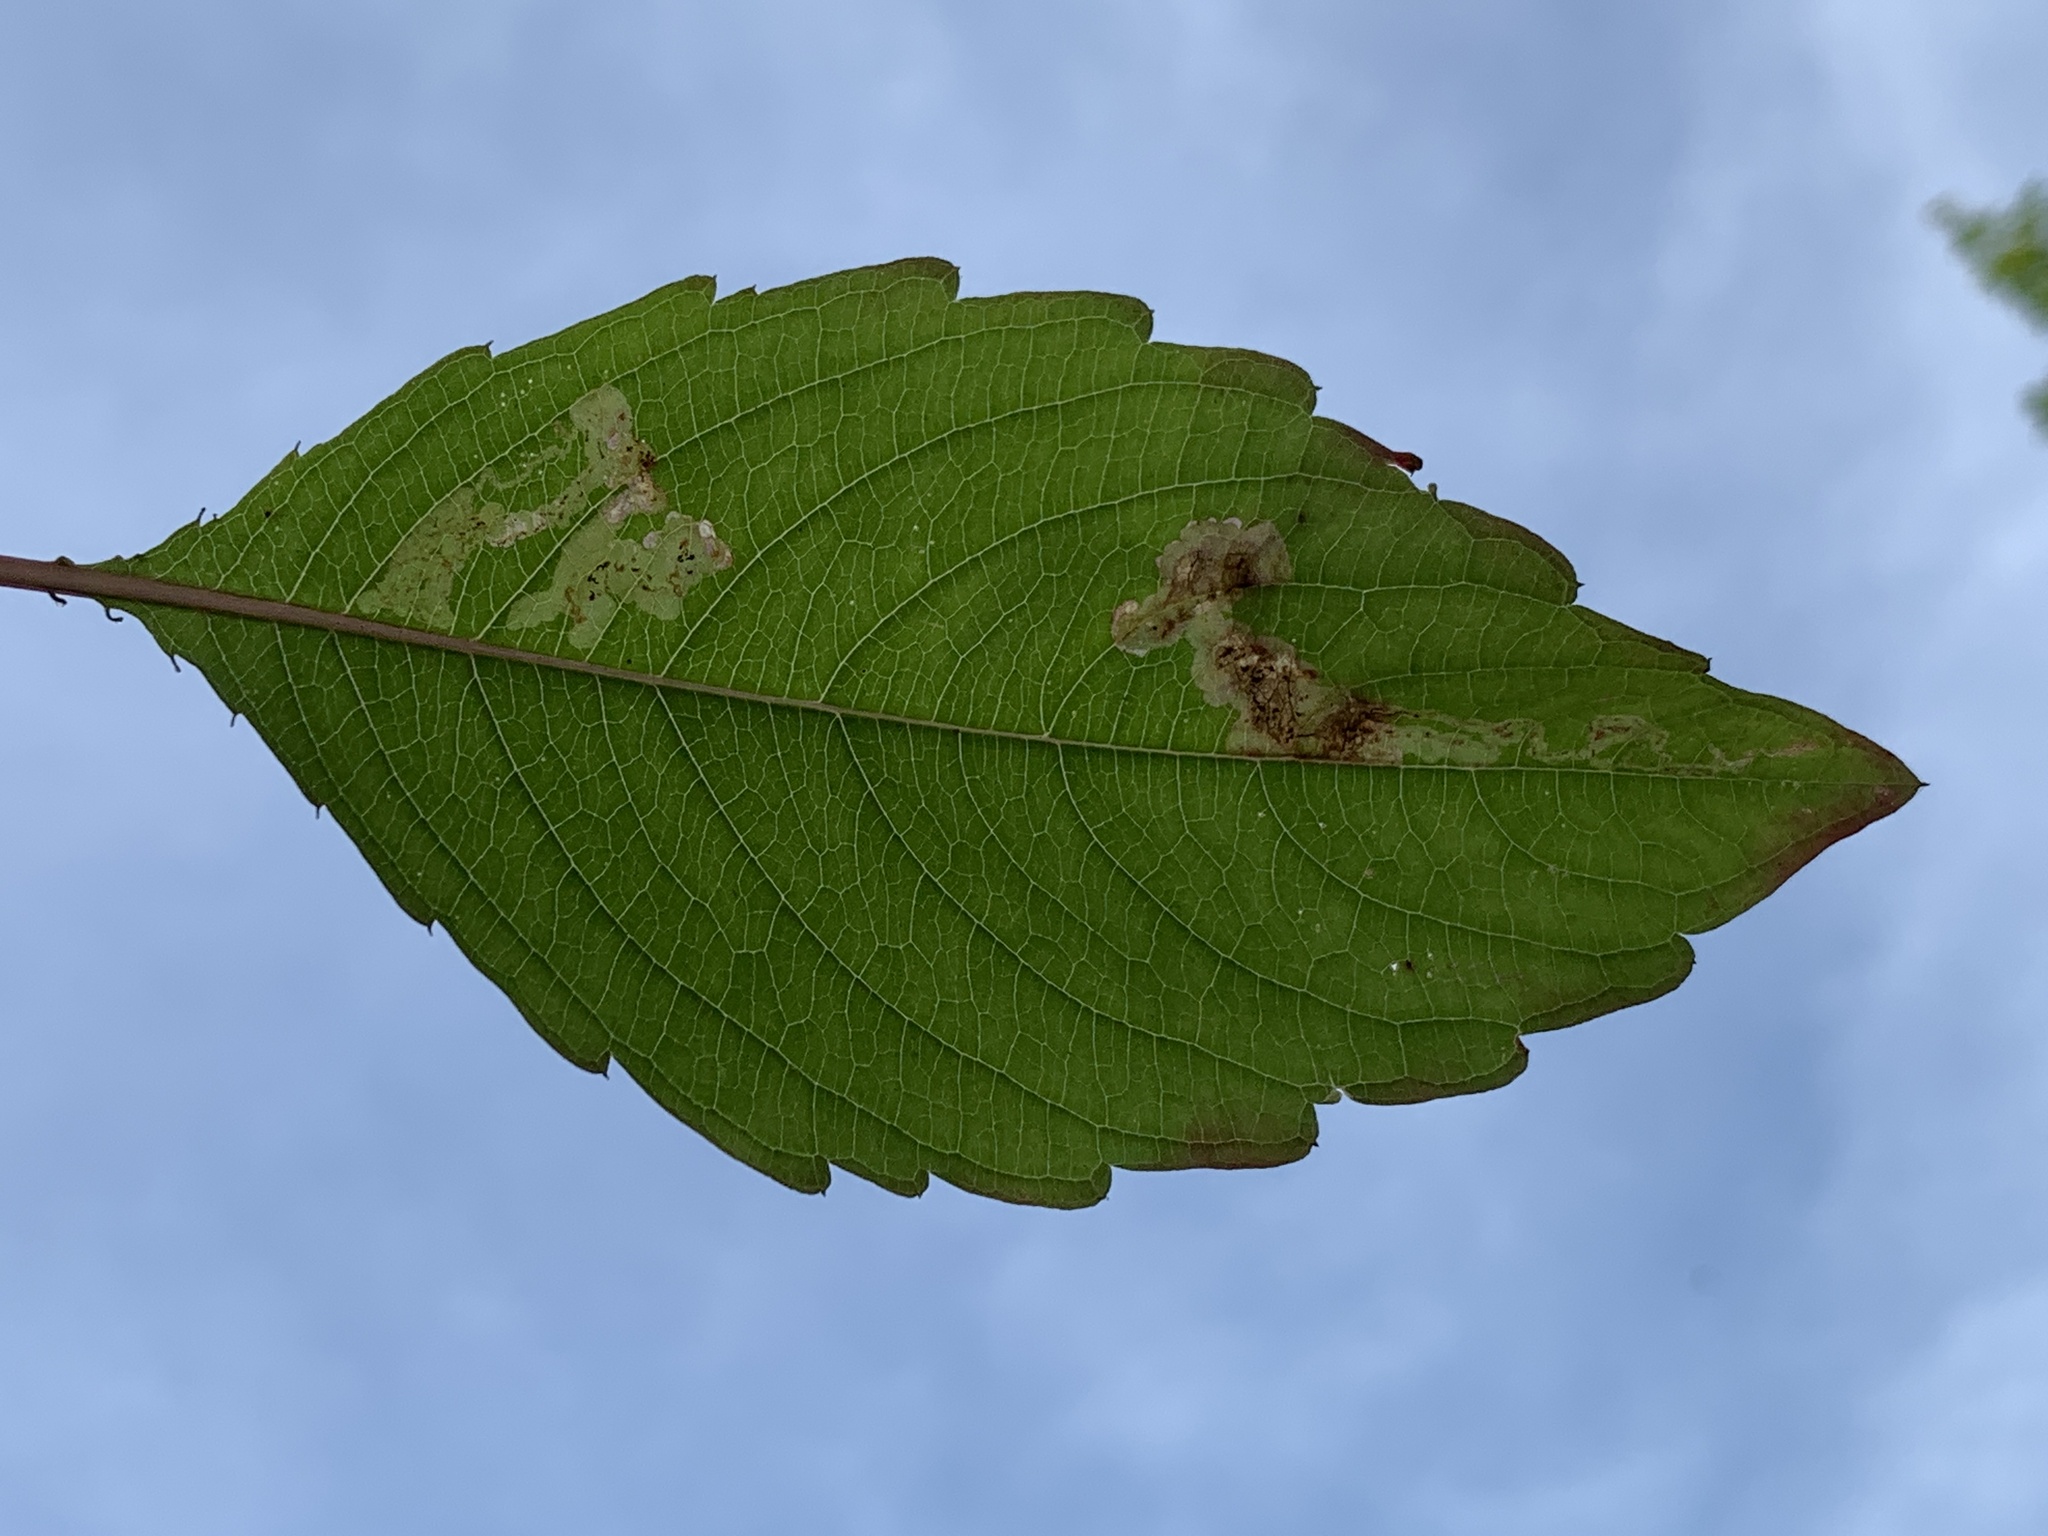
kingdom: Animalia
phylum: Arthropoda
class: Insecta
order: Diptera
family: Agromyzidae
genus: Phytoliriomyza
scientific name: Phytoliriomyza melampyga
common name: Jewelweed leaf-miner fly
